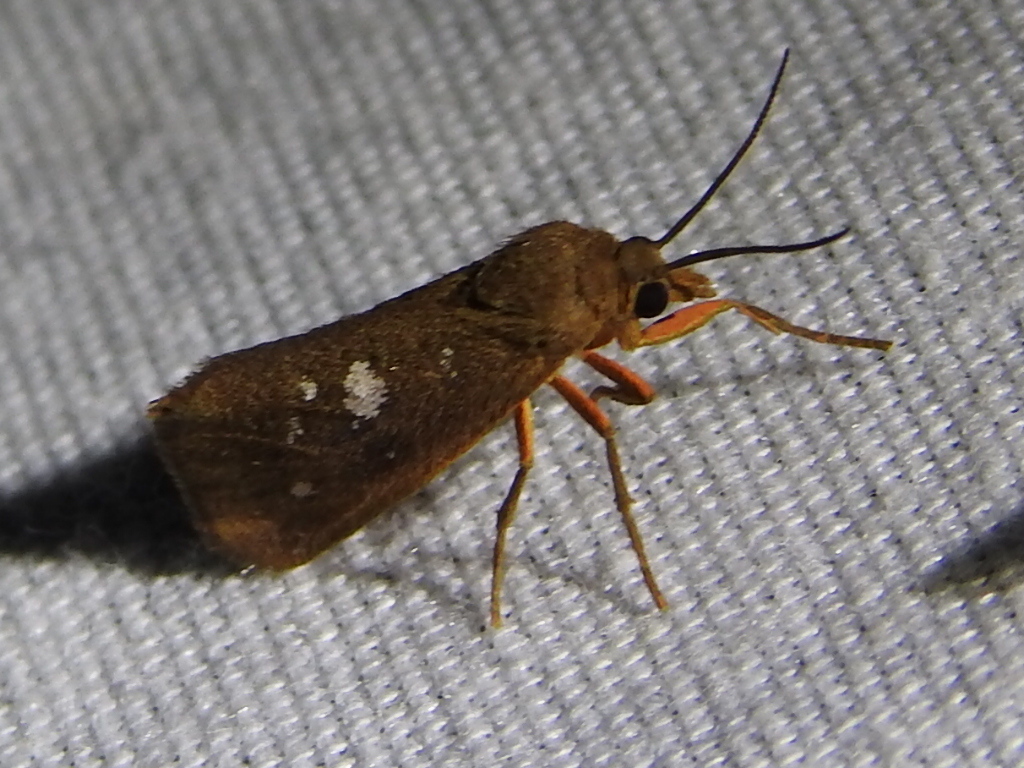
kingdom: Animalia
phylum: Arthropoda
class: Insecta
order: Lepidoptera
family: Erebidae
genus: Virbia
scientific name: Virbia aurantiaca
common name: Orange virbia moth
